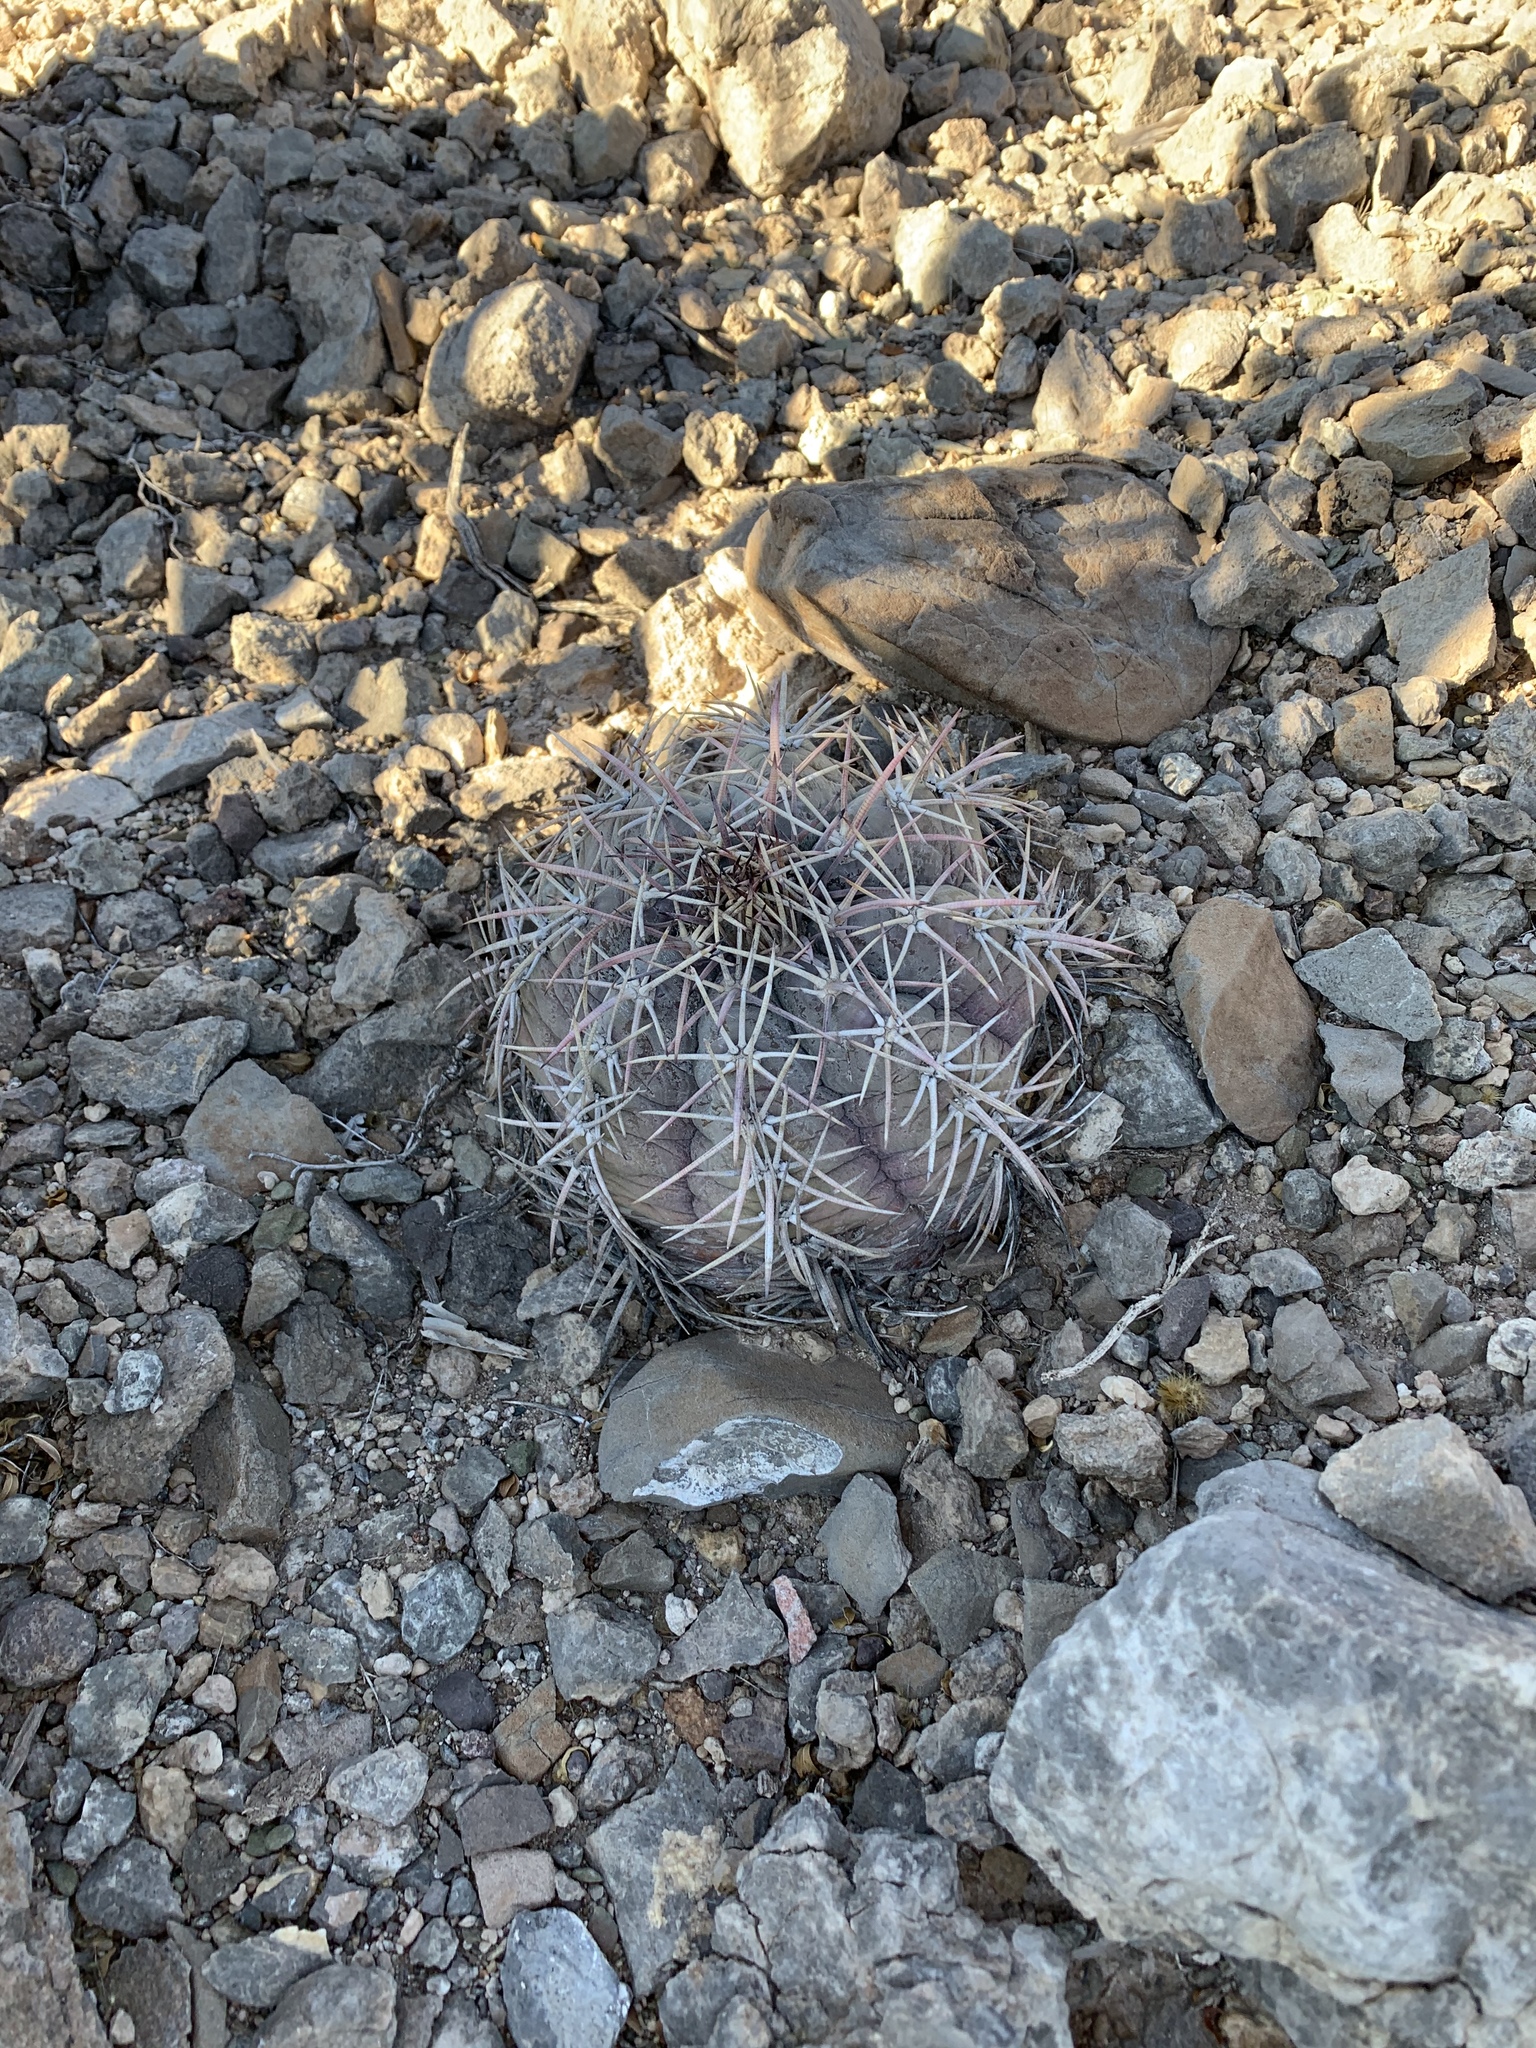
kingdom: Plantae
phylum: Tracheophyta
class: Magnoliopsida
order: Caryophyllales
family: Cactaceae
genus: Echinocactus
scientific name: Echinocactus horizonthalonius
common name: Devilshead
